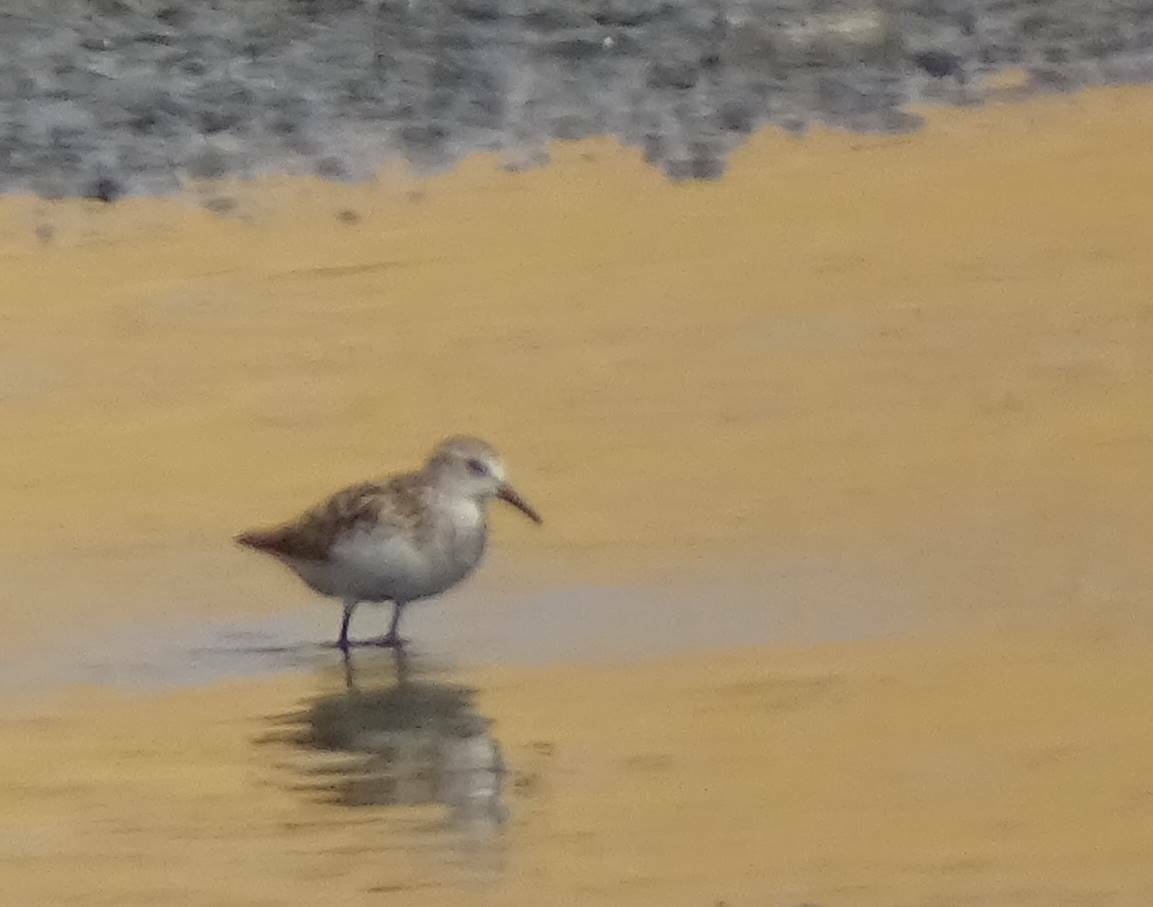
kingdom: Animalia
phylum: Chordata
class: Aves
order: Charadriiformes
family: Scolopacidae
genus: Calidris
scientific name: Calidris minuta
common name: Little stint
